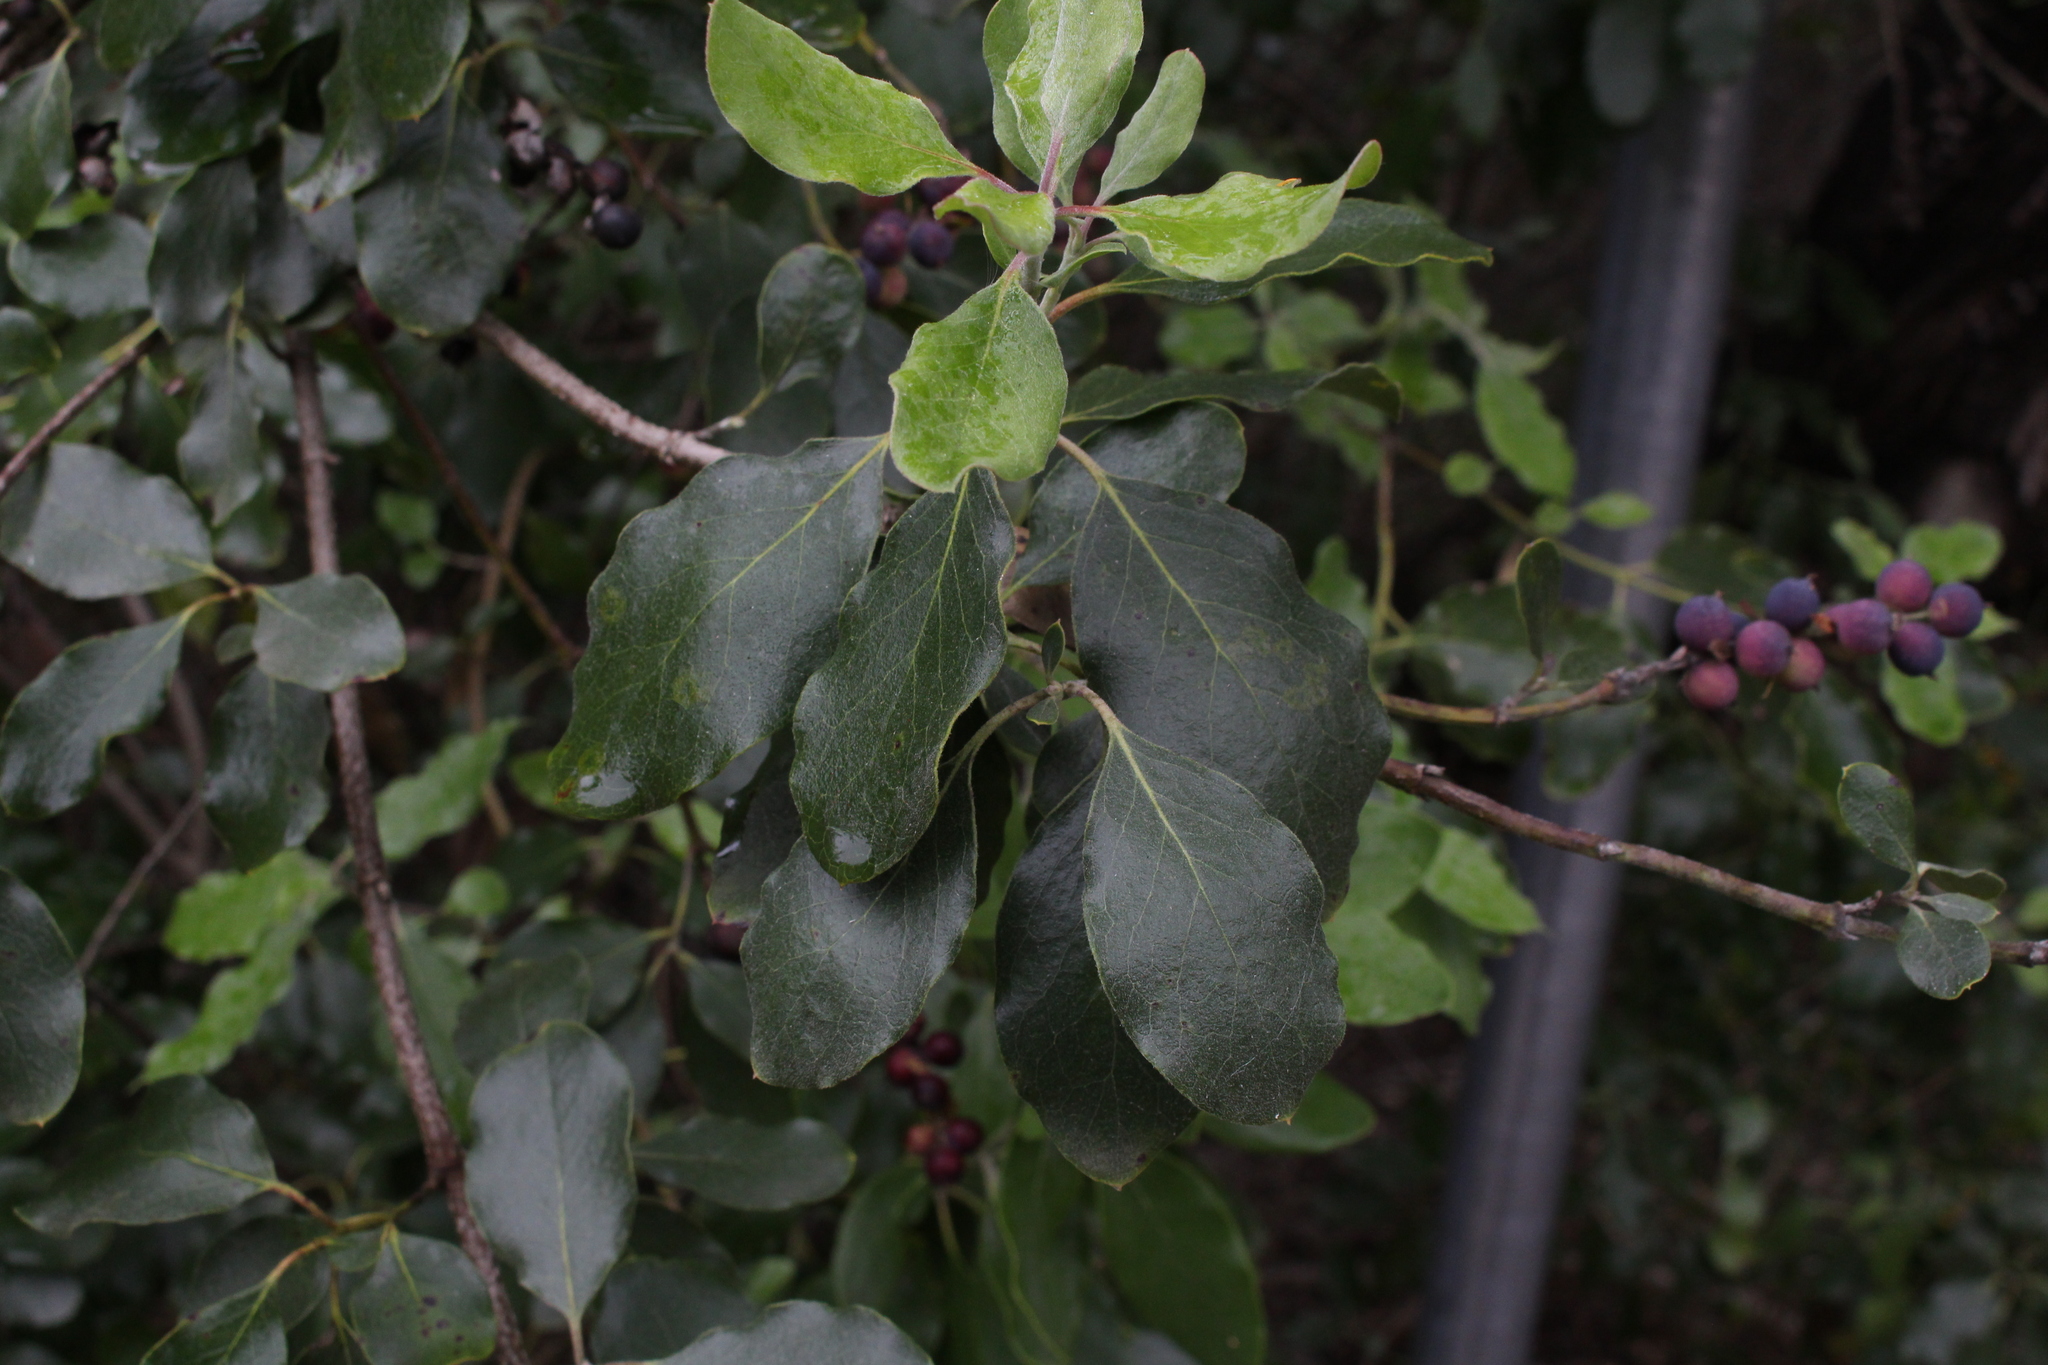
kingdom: Plantae
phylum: Tracheophyta
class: Magnoliopsida
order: Garryales
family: Garryaceae
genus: Garrya
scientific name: Garrya lindheimeri
